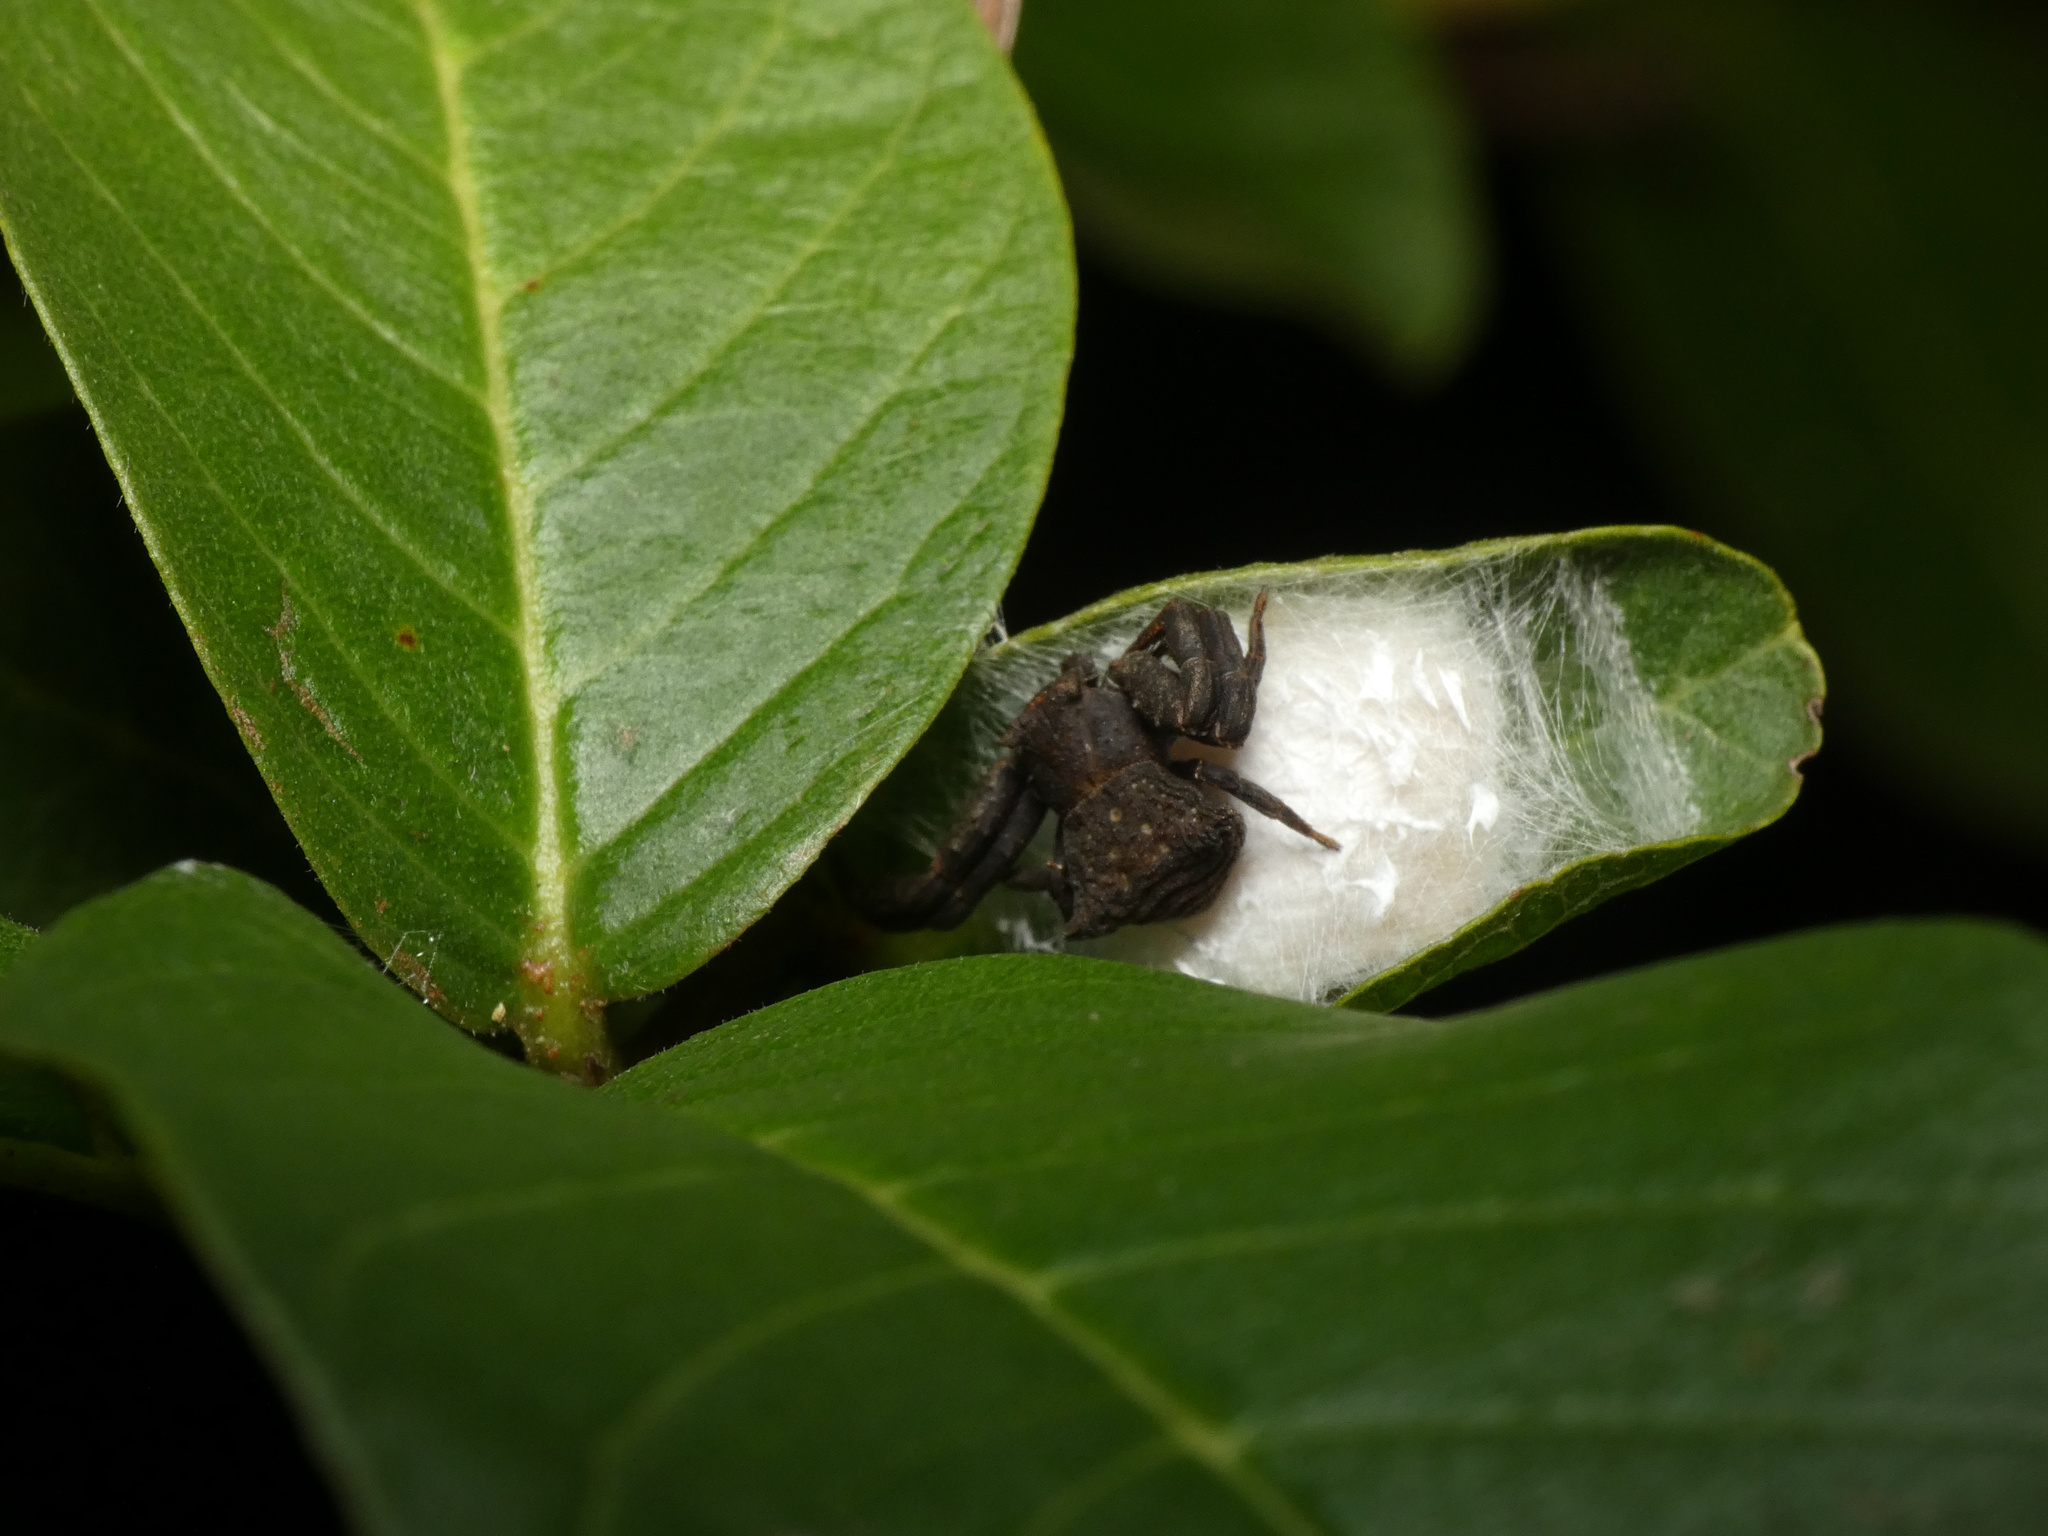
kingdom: Animalia
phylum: Arthropoda
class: Arachnida
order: Araneae
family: Thomisidae
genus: Thomisus
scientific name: Thomisus scrupeus
